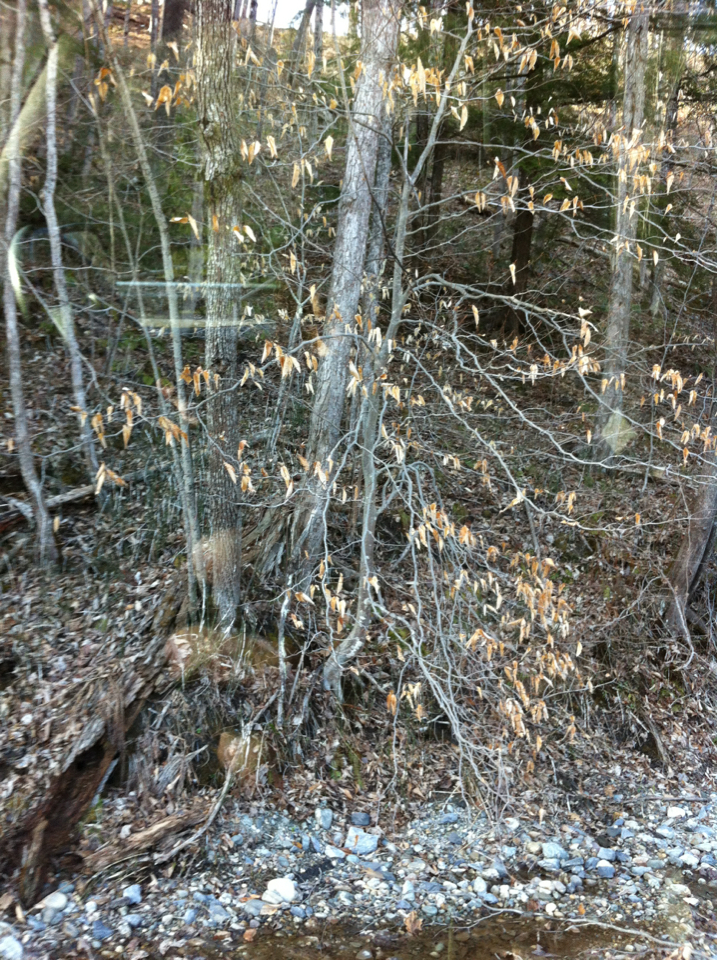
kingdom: Plantae
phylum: Tracheophyta
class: Magnoliopsida
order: Fagales
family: Fagaceae
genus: Fagus
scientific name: Fagus grandifolia
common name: American beech
